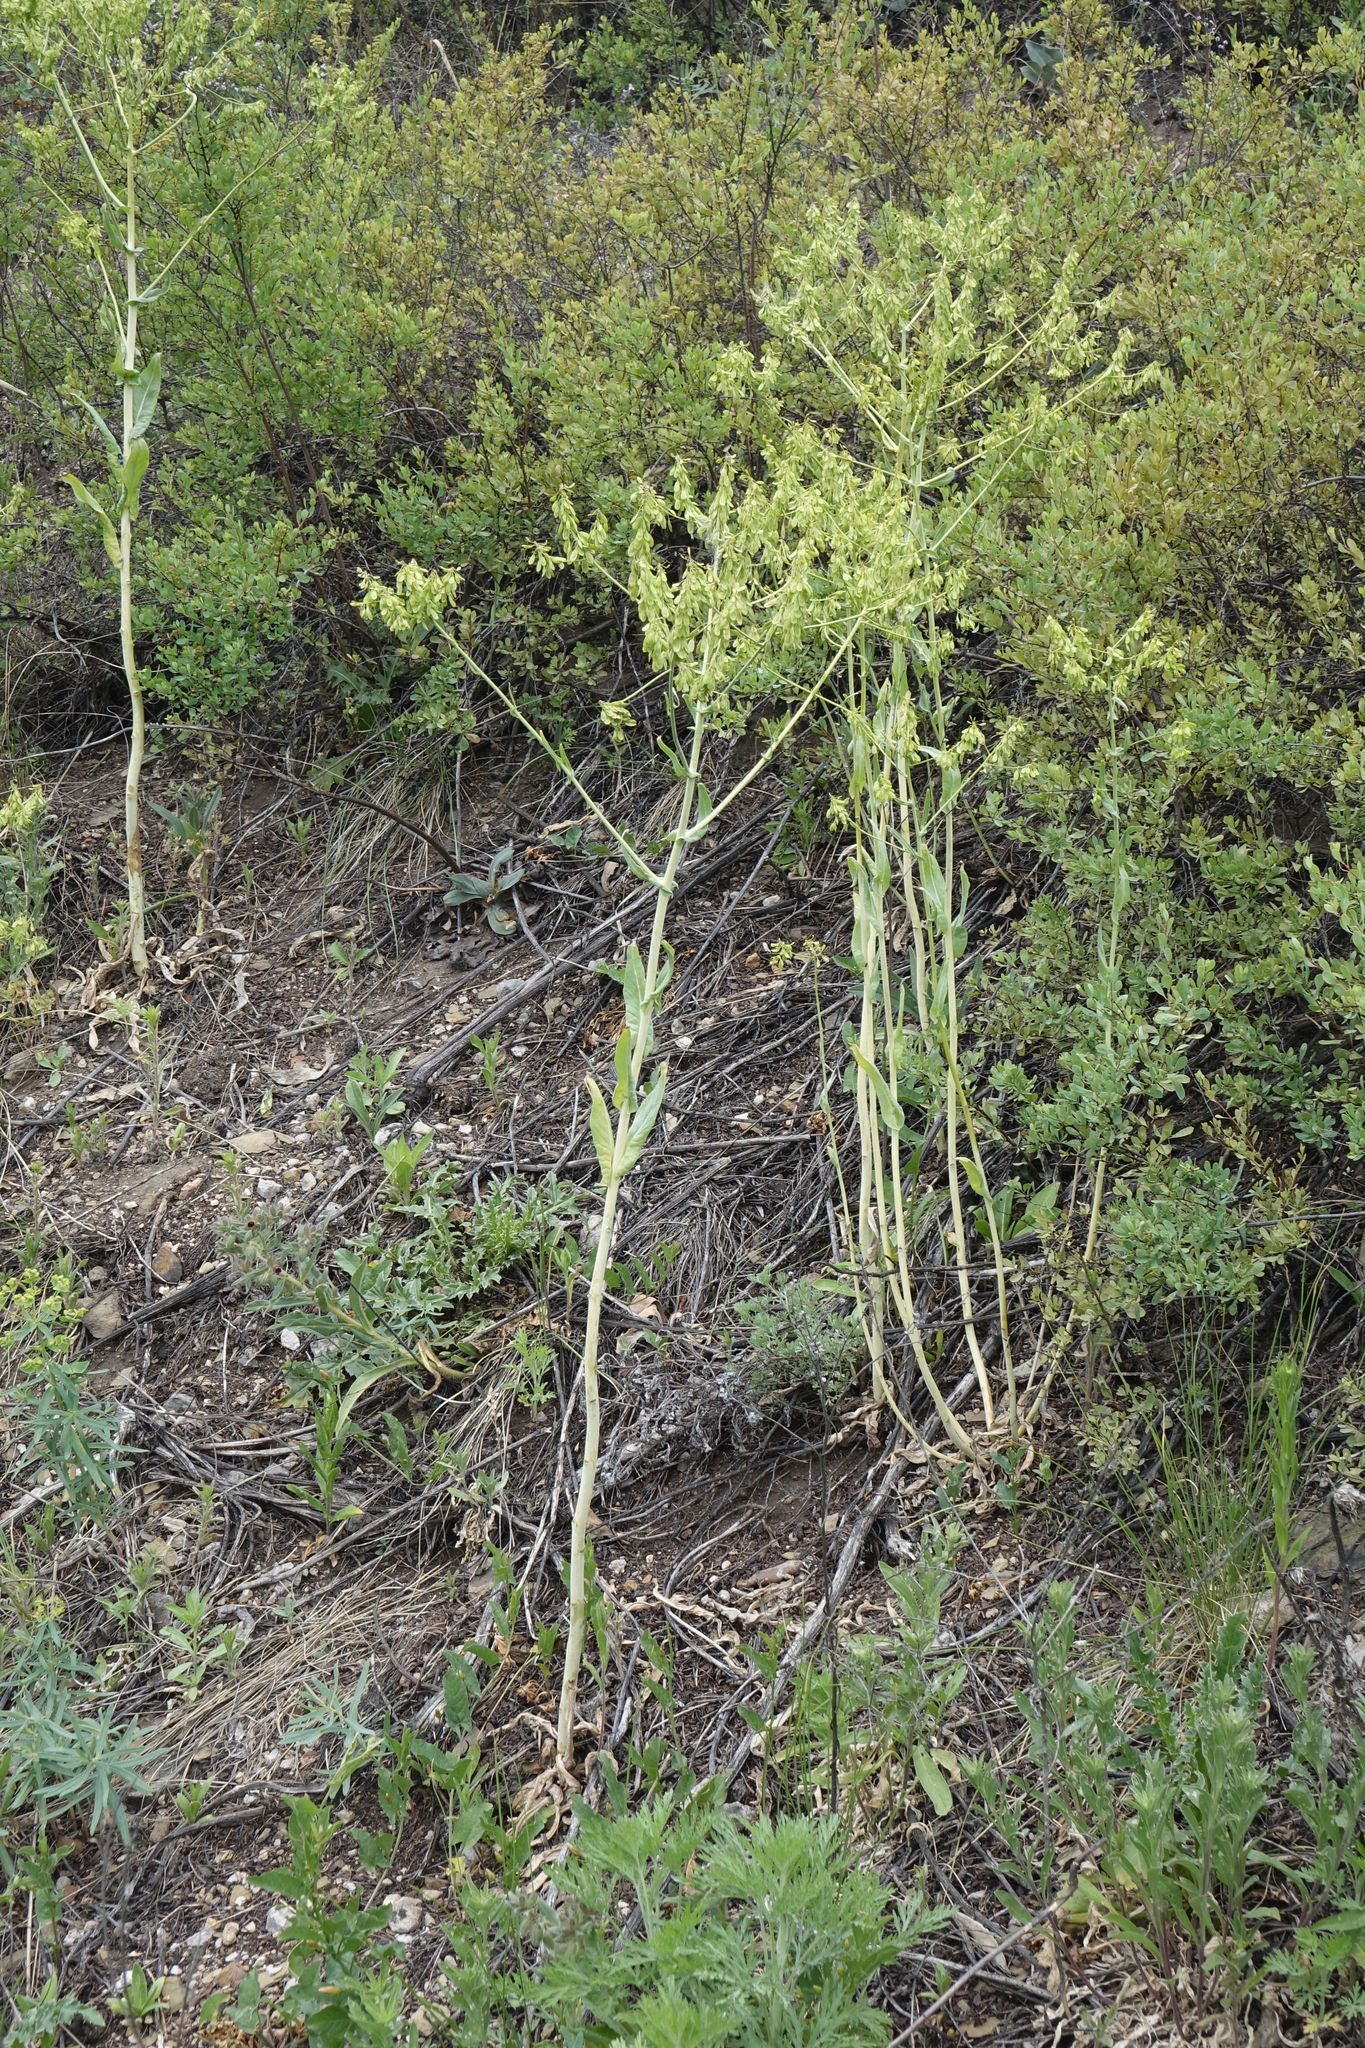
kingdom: Plantae
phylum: Tracheophyta
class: Magnoliopsida
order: Brassicales
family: Brassicaceae
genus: Isatis
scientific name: Isatis costata
